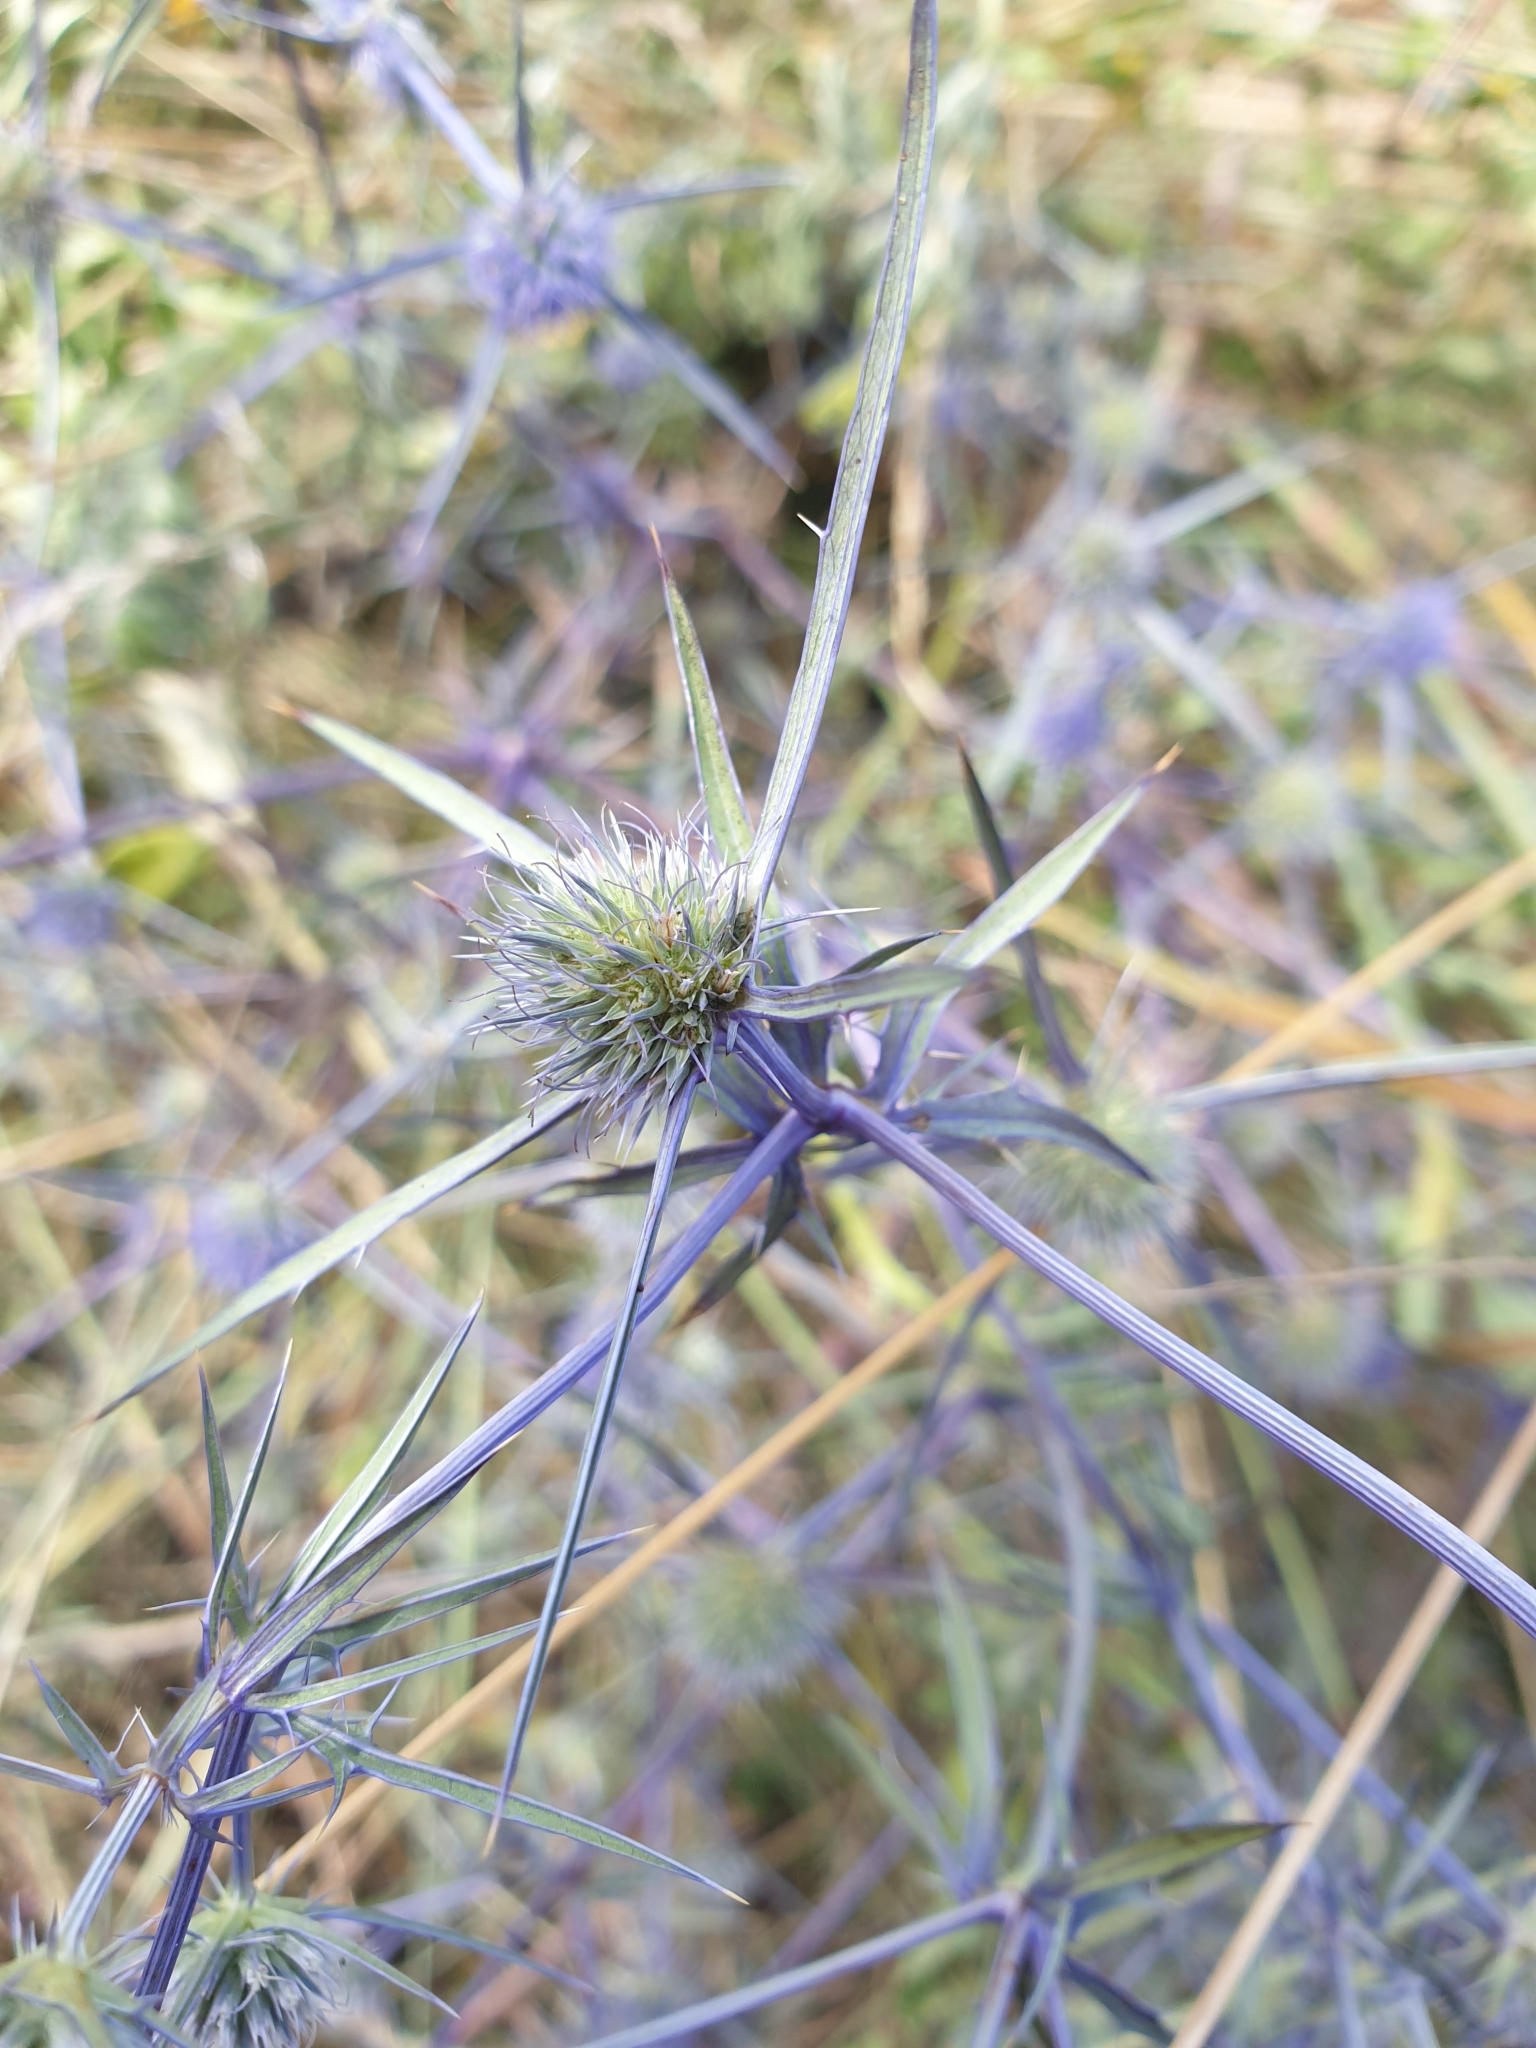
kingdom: Plantae
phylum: Tracheophyta
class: Magnoliopsida
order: Apiales
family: Apiaceae
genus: Eryngium
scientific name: Eryngium caeruleum
